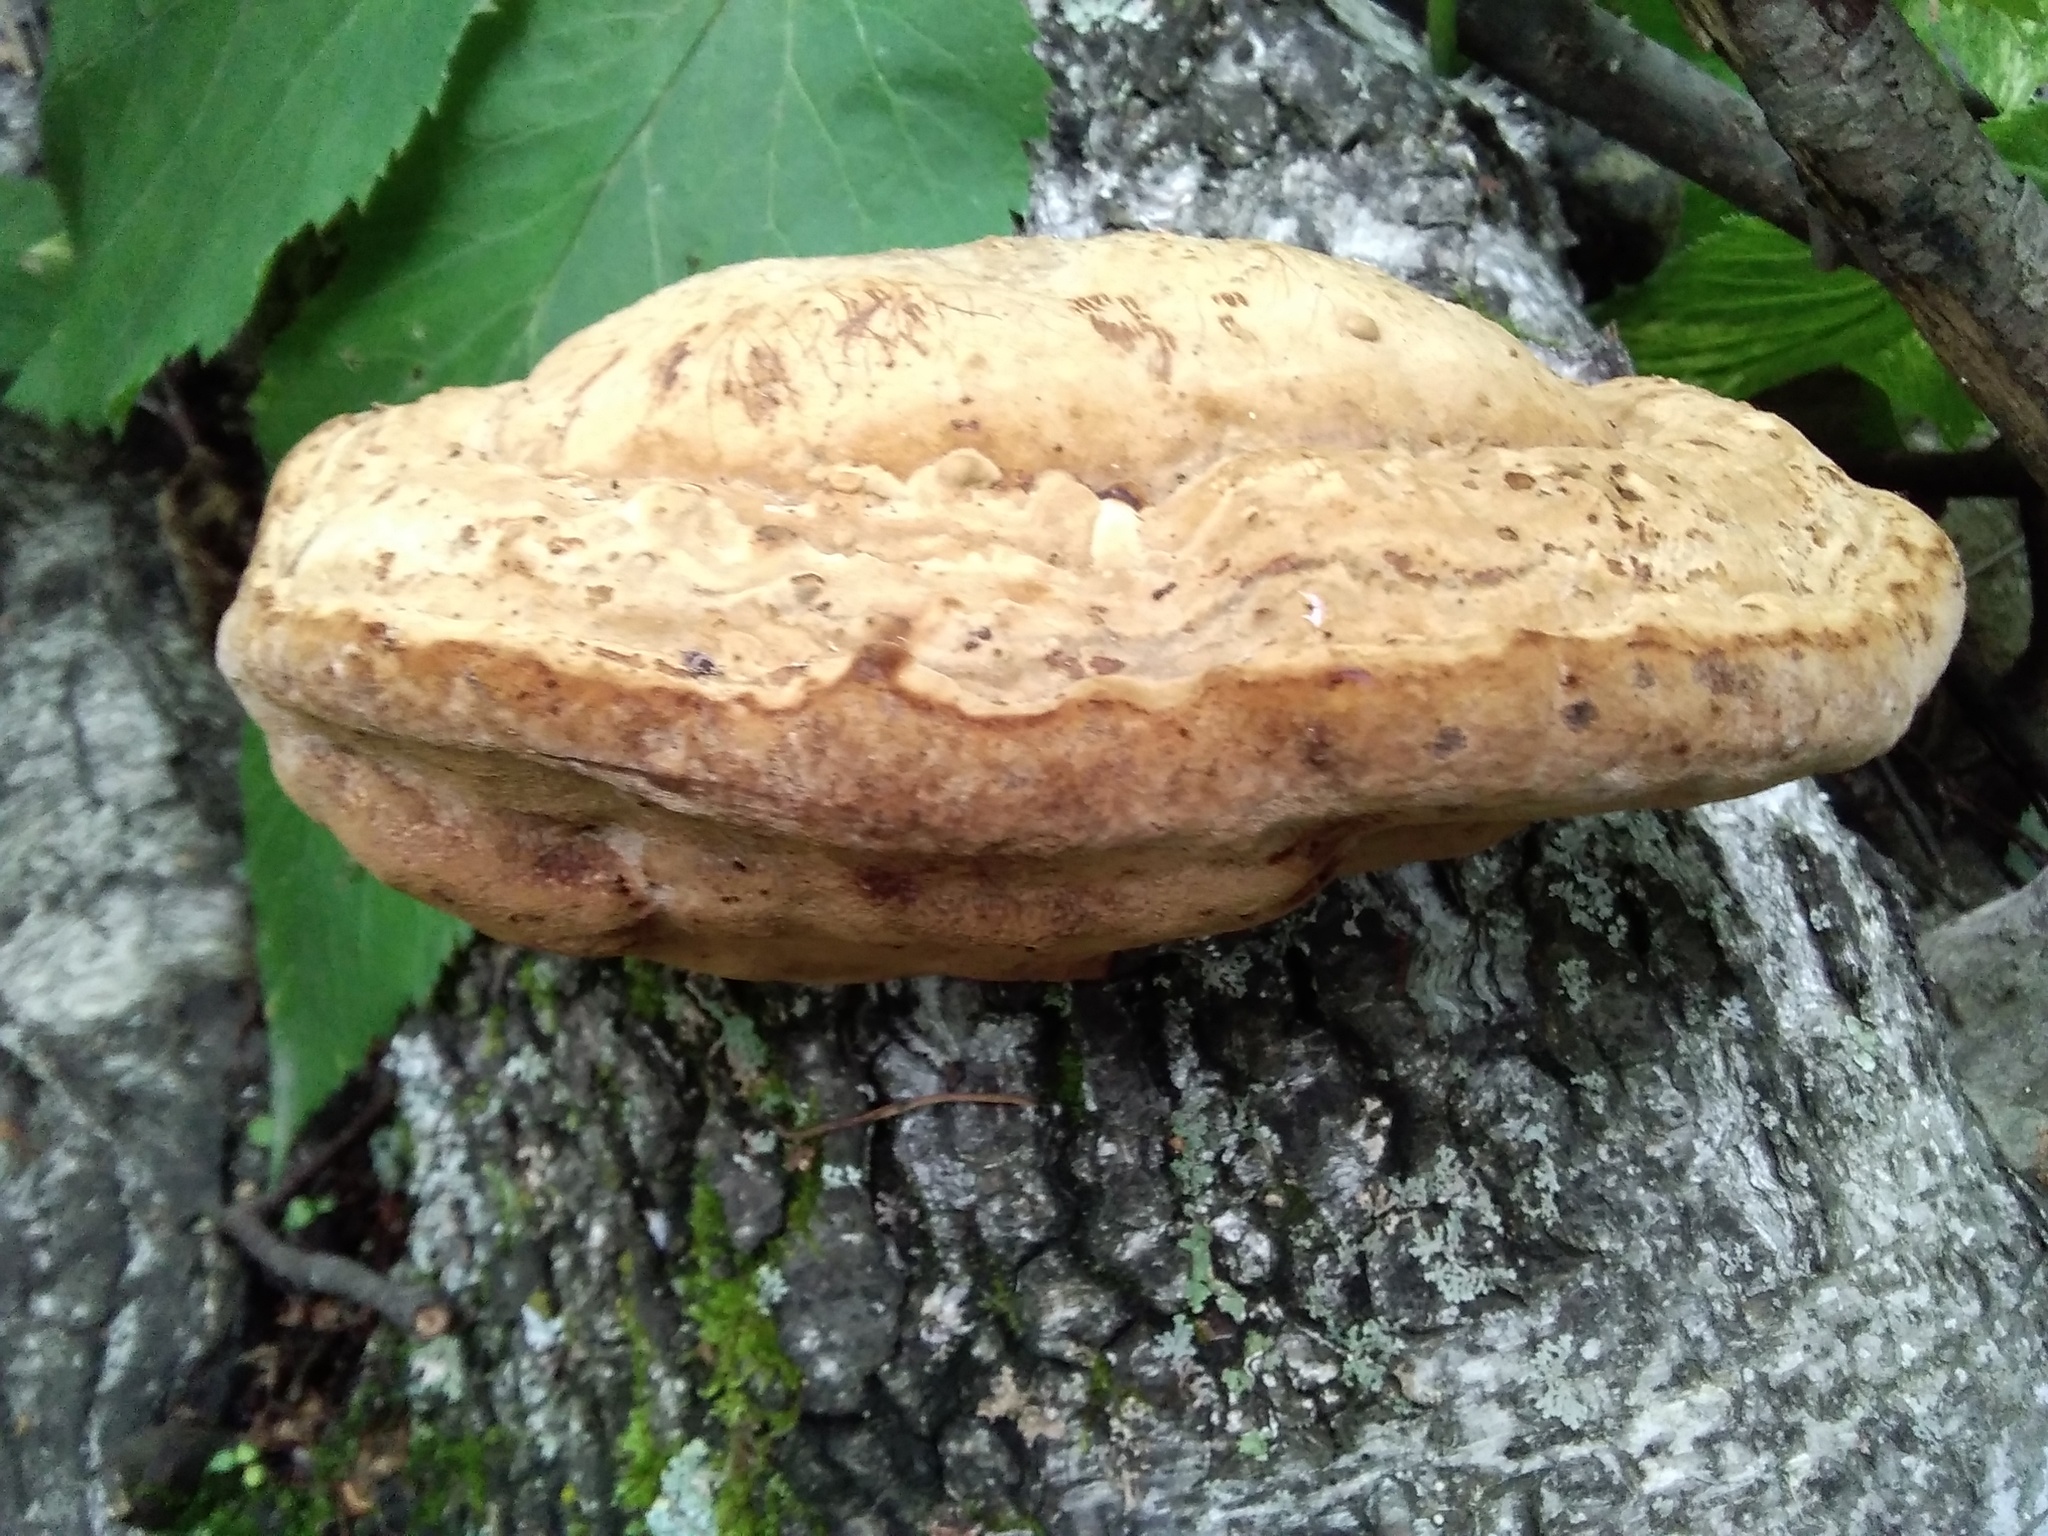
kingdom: Fungi
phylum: Basidiomycota
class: Agaricomycetes
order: Polyporales
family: Polyporaceae
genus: Fomes
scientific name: Fomes fomentarius
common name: Hoof fungus
